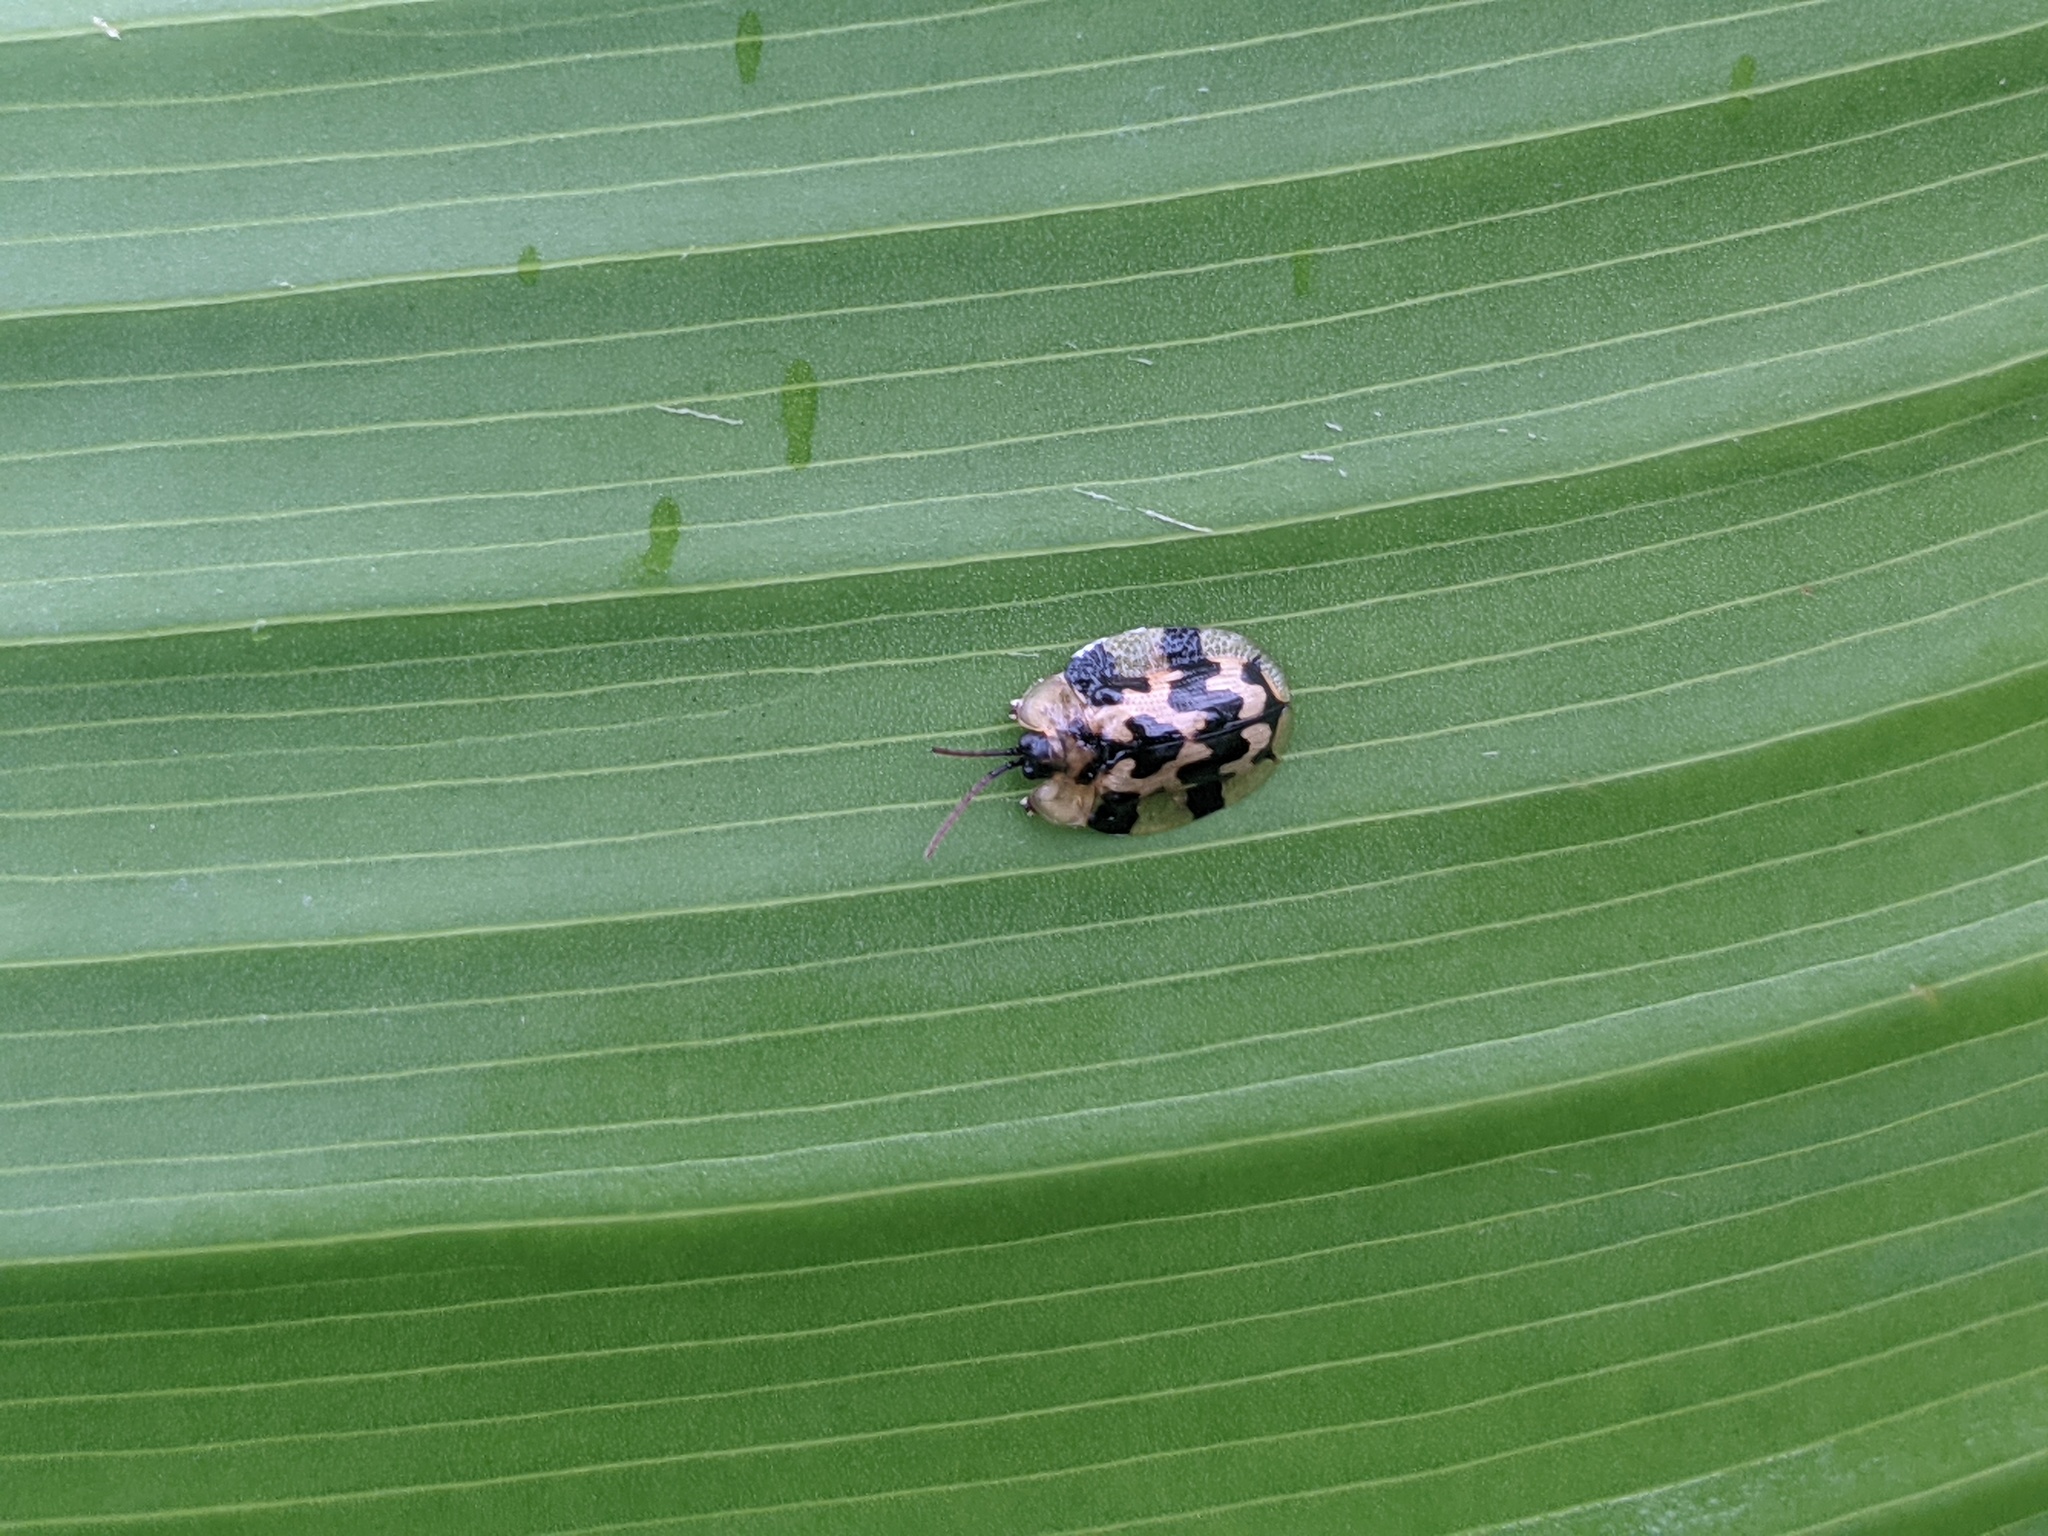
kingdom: Animalia
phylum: Arthropoda
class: Insecta
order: Coleoptera
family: Chrysomelidae
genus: Aslamidium
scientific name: Aslamidium capense
